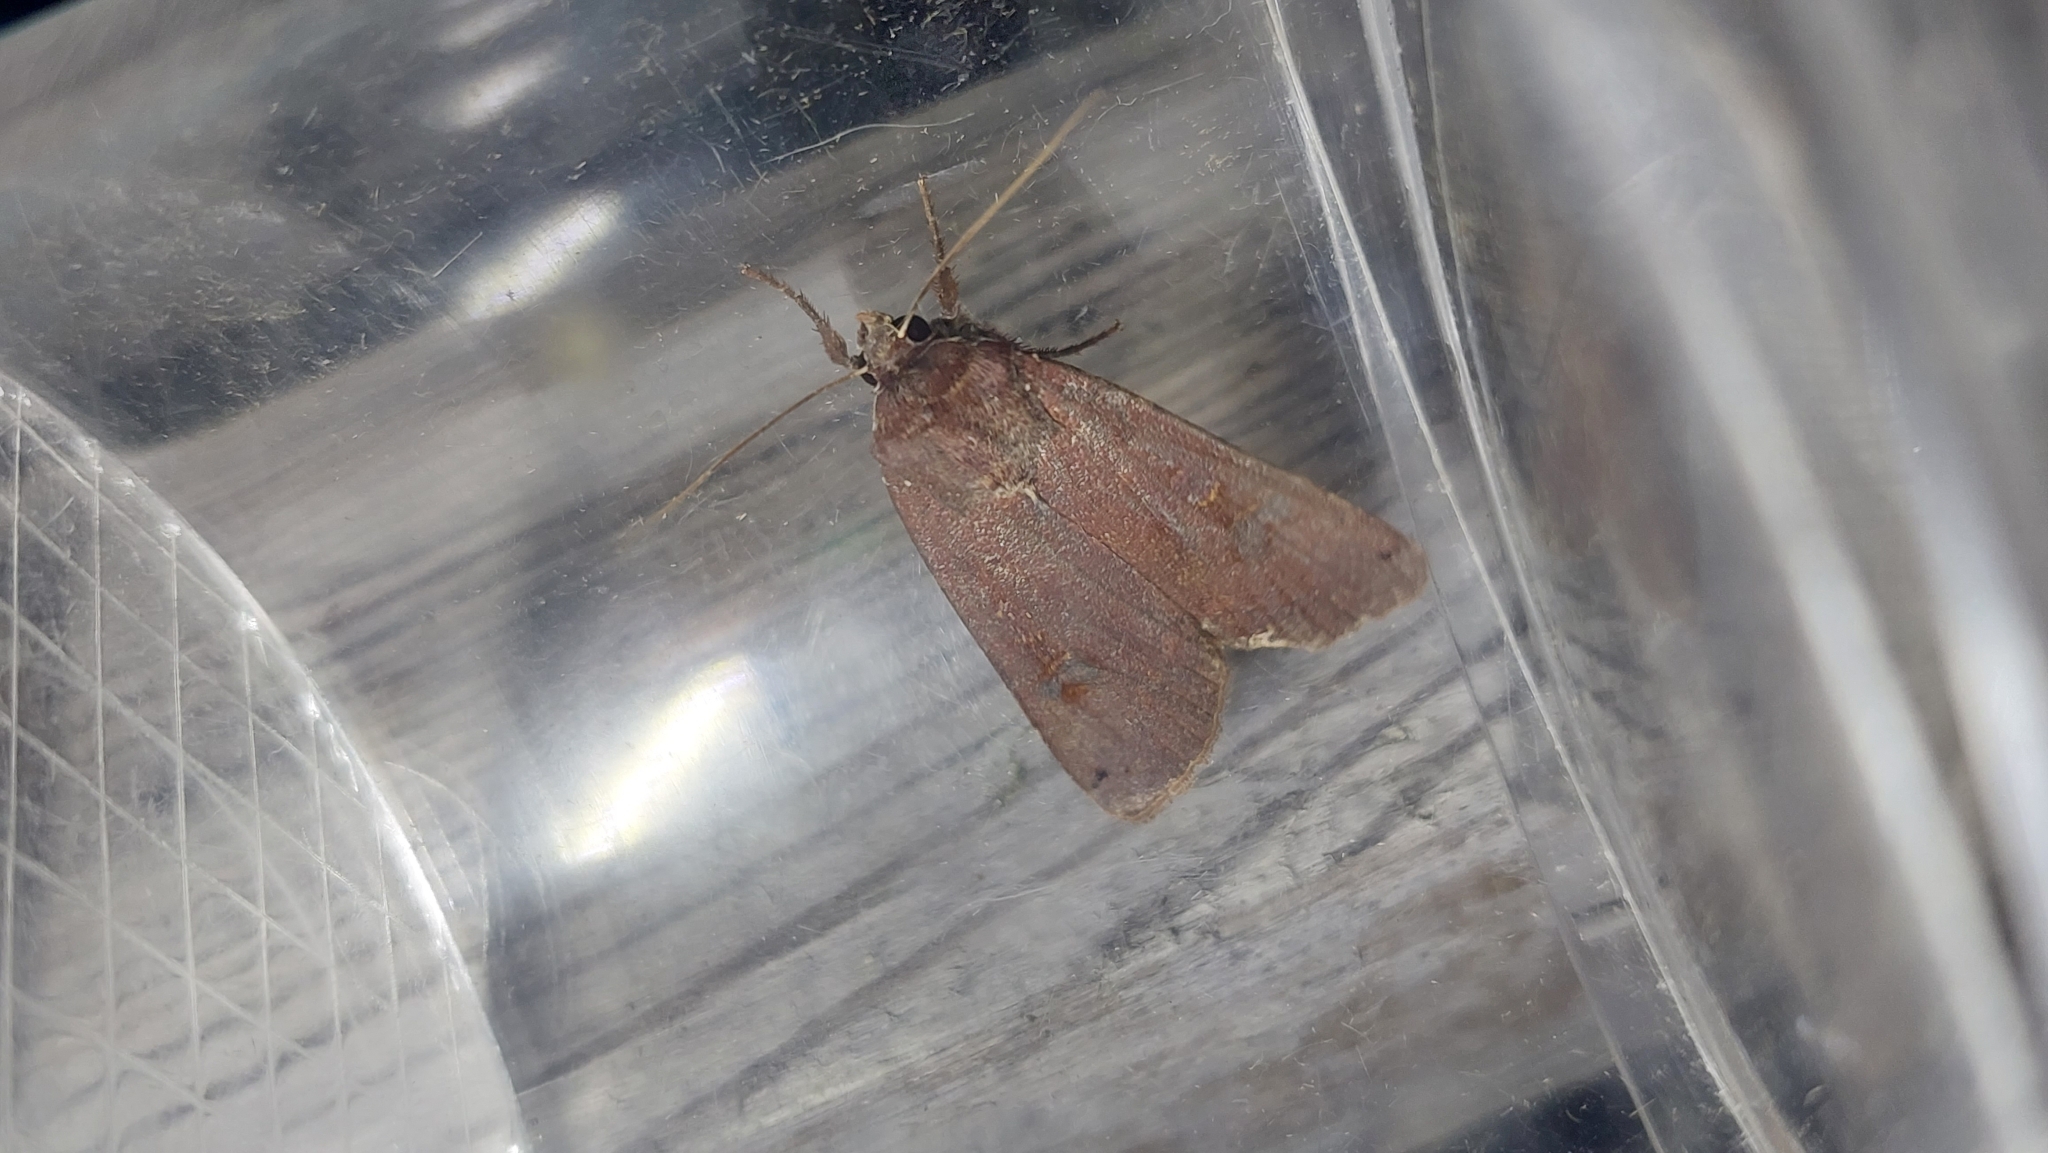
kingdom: Animalia
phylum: Arthropoda
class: Insecta
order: Lepidoptera
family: Noctuidae
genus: Noctua
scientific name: Noctua pronuba
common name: Large yellow underwing
